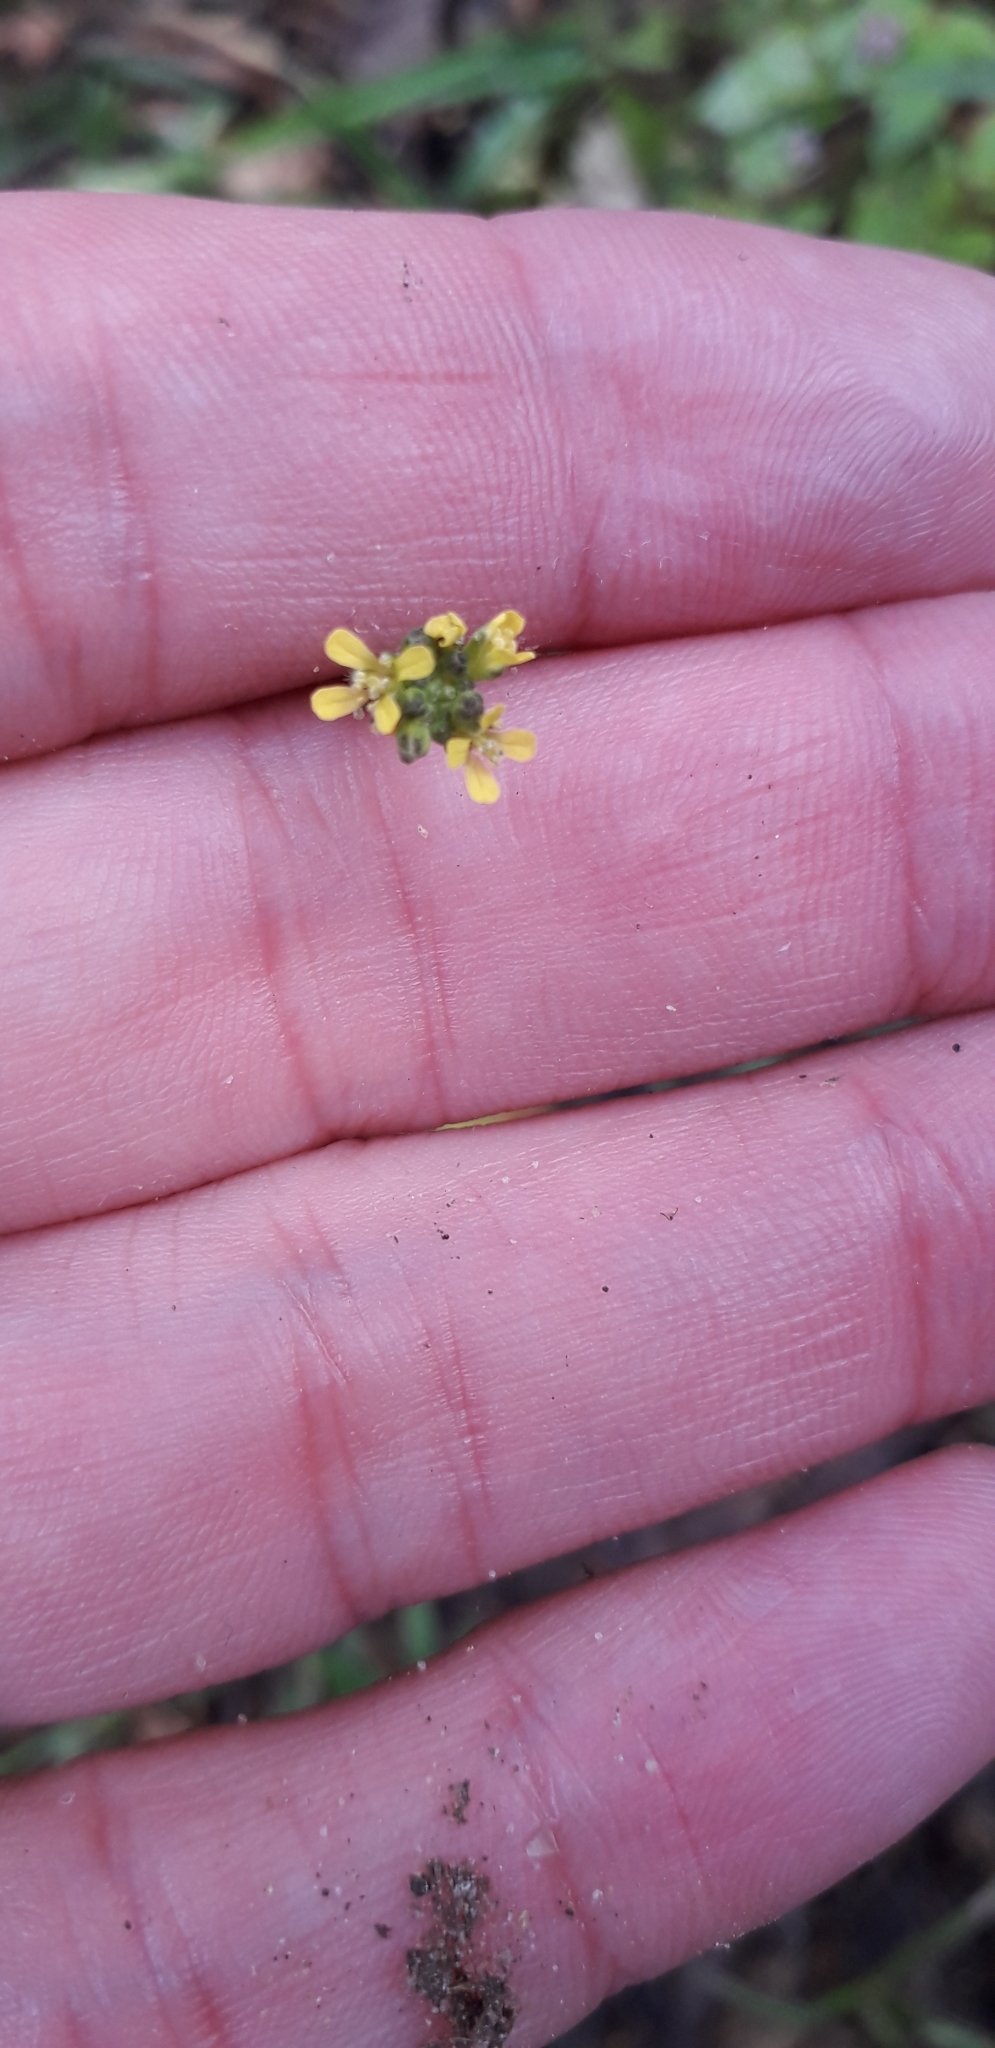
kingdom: Plantae
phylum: Tracheophyta
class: Magnoliopsida
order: Brassicales
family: Brassicaceae
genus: Sisymbrium
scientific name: Sisymbrium officinale
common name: Hedge mustard
